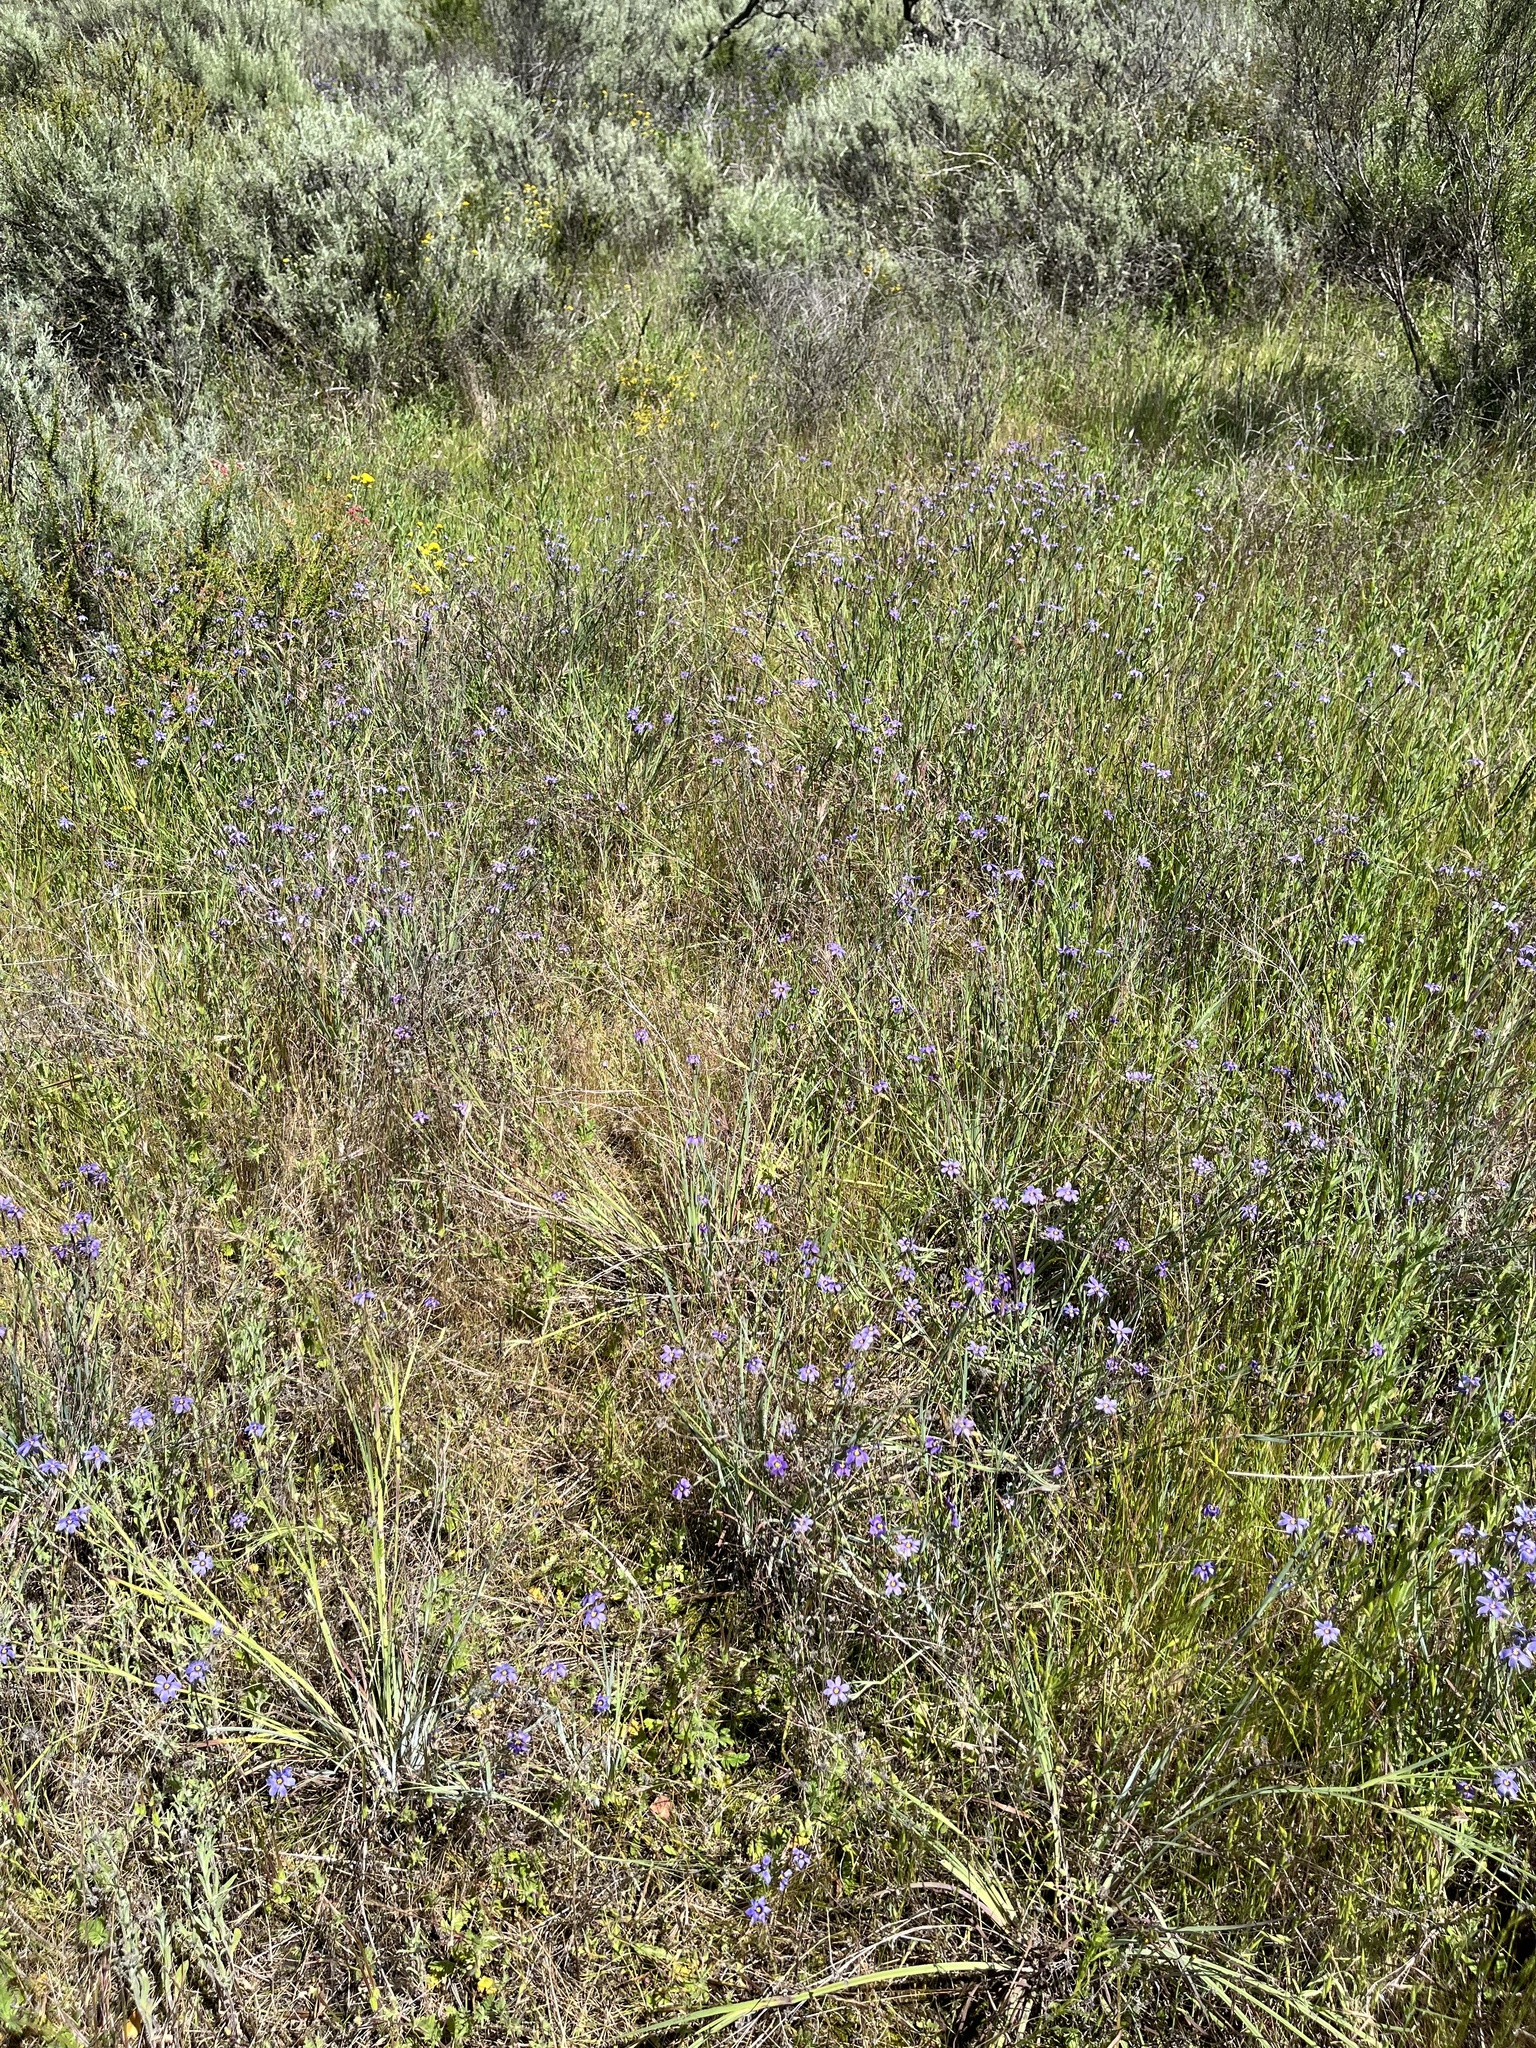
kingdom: Plantae
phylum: Tracheophyta
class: Liliopsida
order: Asparagales
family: Iridaceae
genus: Sisyrinchium
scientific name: Sisyrinchium bellum
